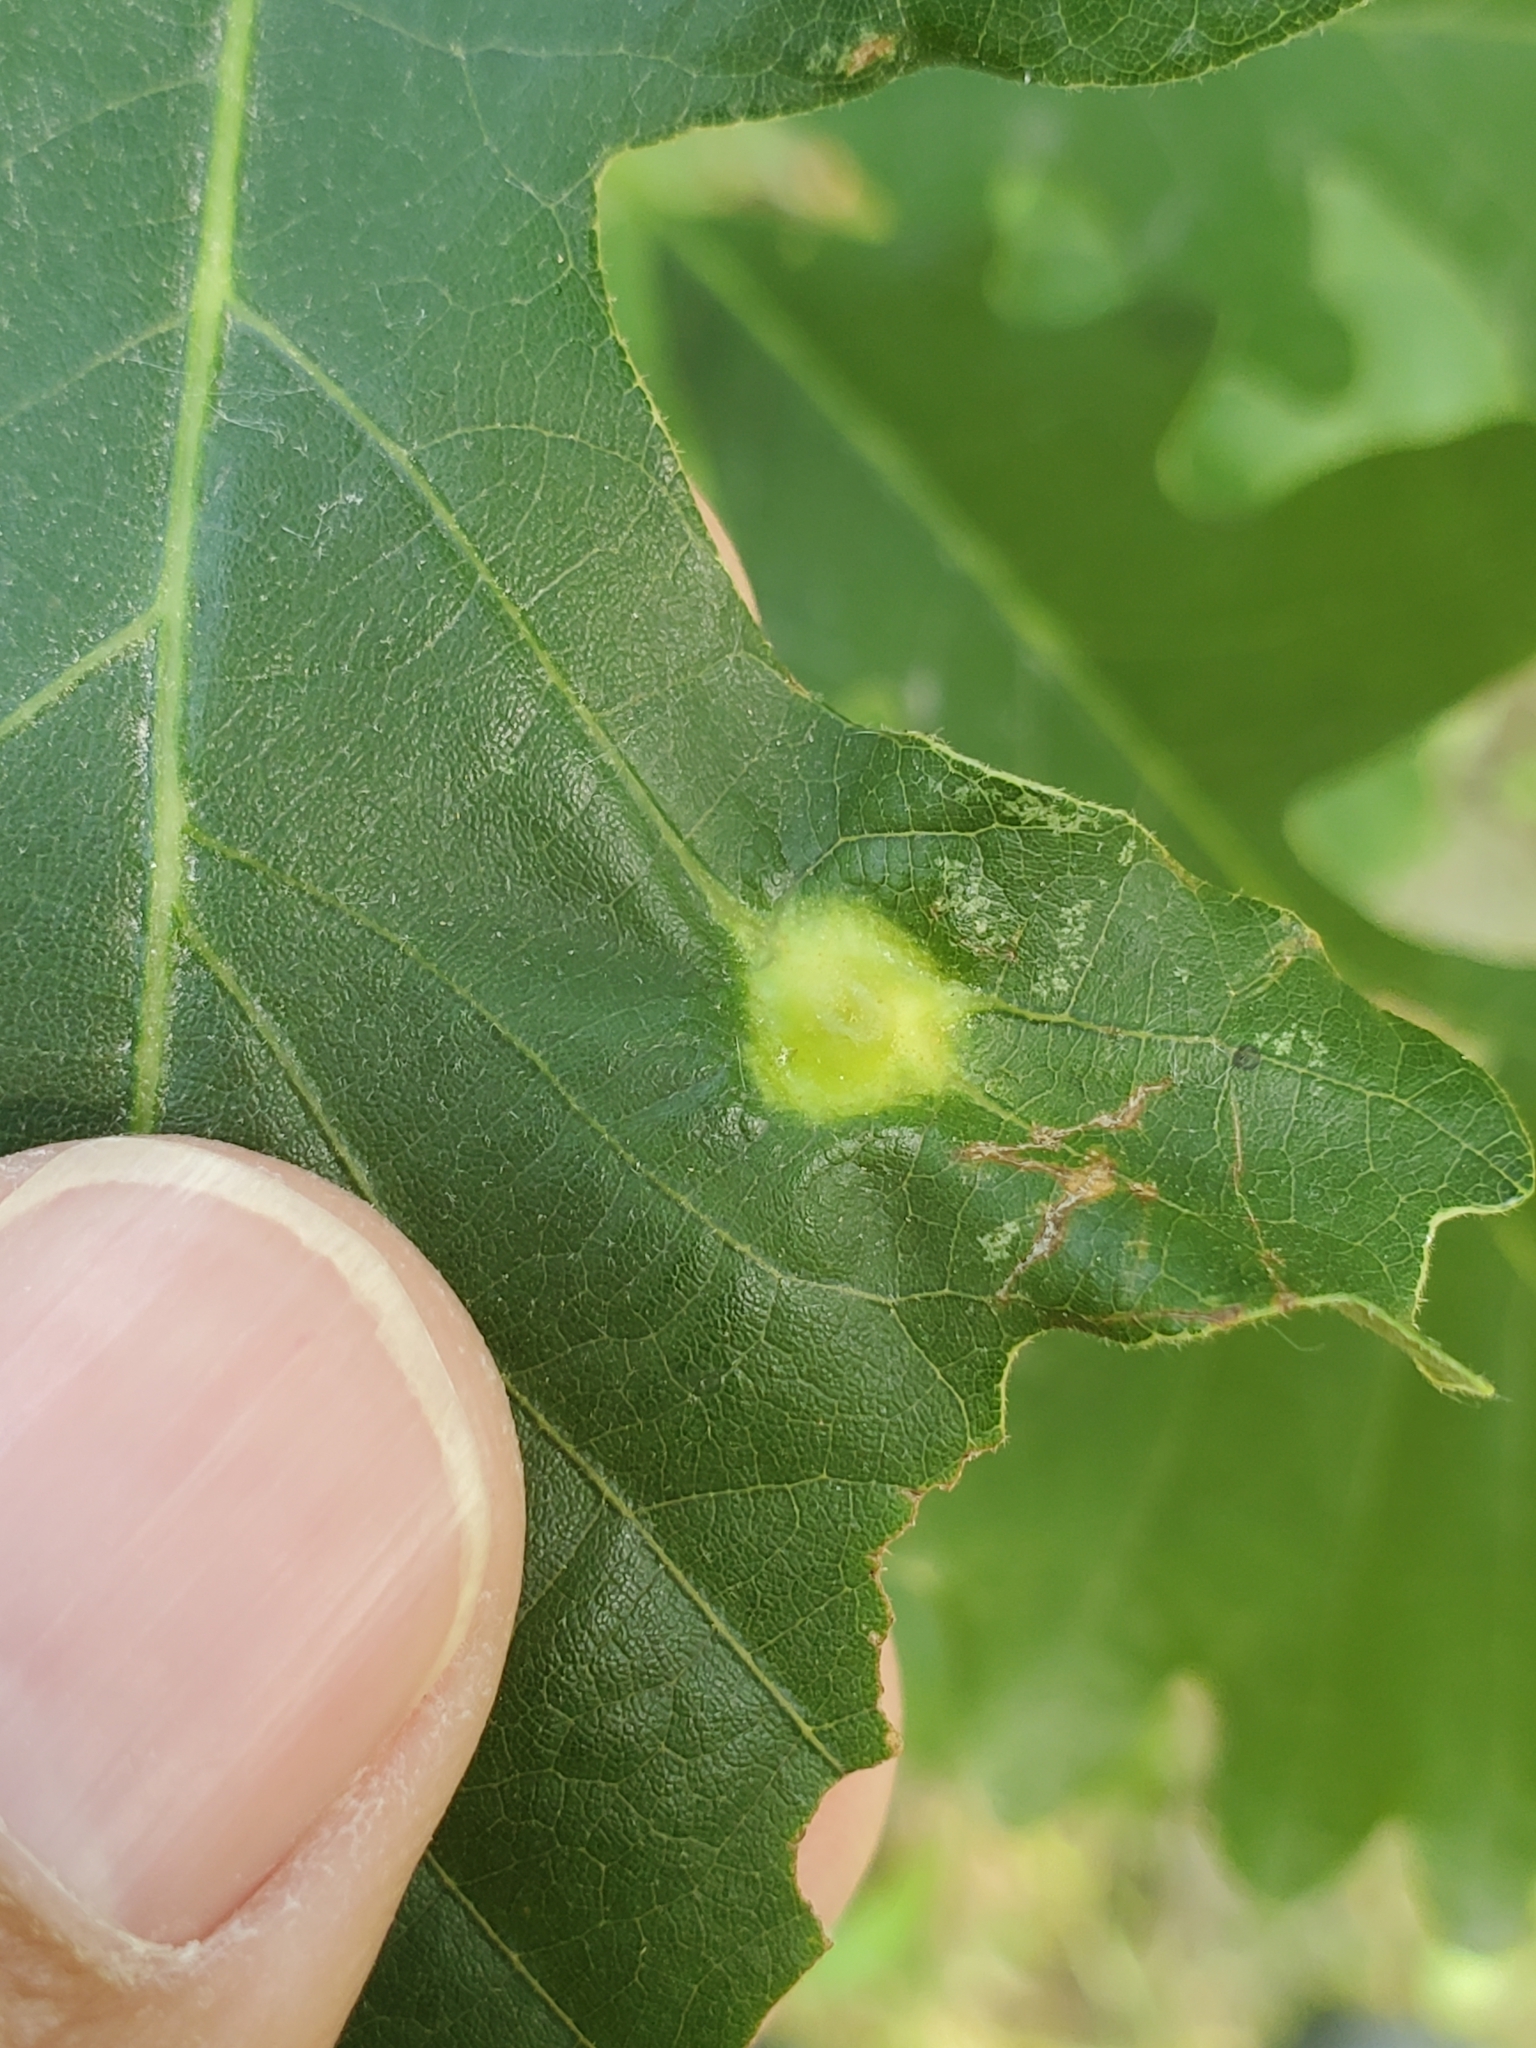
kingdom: Animalia
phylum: Arthropoda
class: Insecta
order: Hymenoptera
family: Cynipidae
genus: Bassettia
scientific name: Bassettia flavipes
